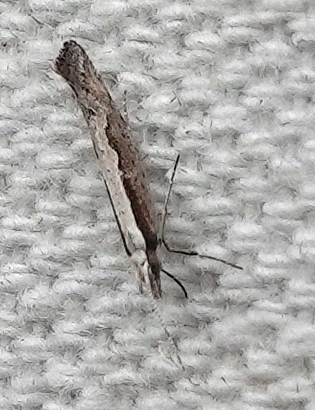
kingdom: Animalia
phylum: Arthropoda
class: Insecta
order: Lepidoptera
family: Plutellidae
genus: Plutella
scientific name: Plutella xylostella
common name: Diamond-back moth
